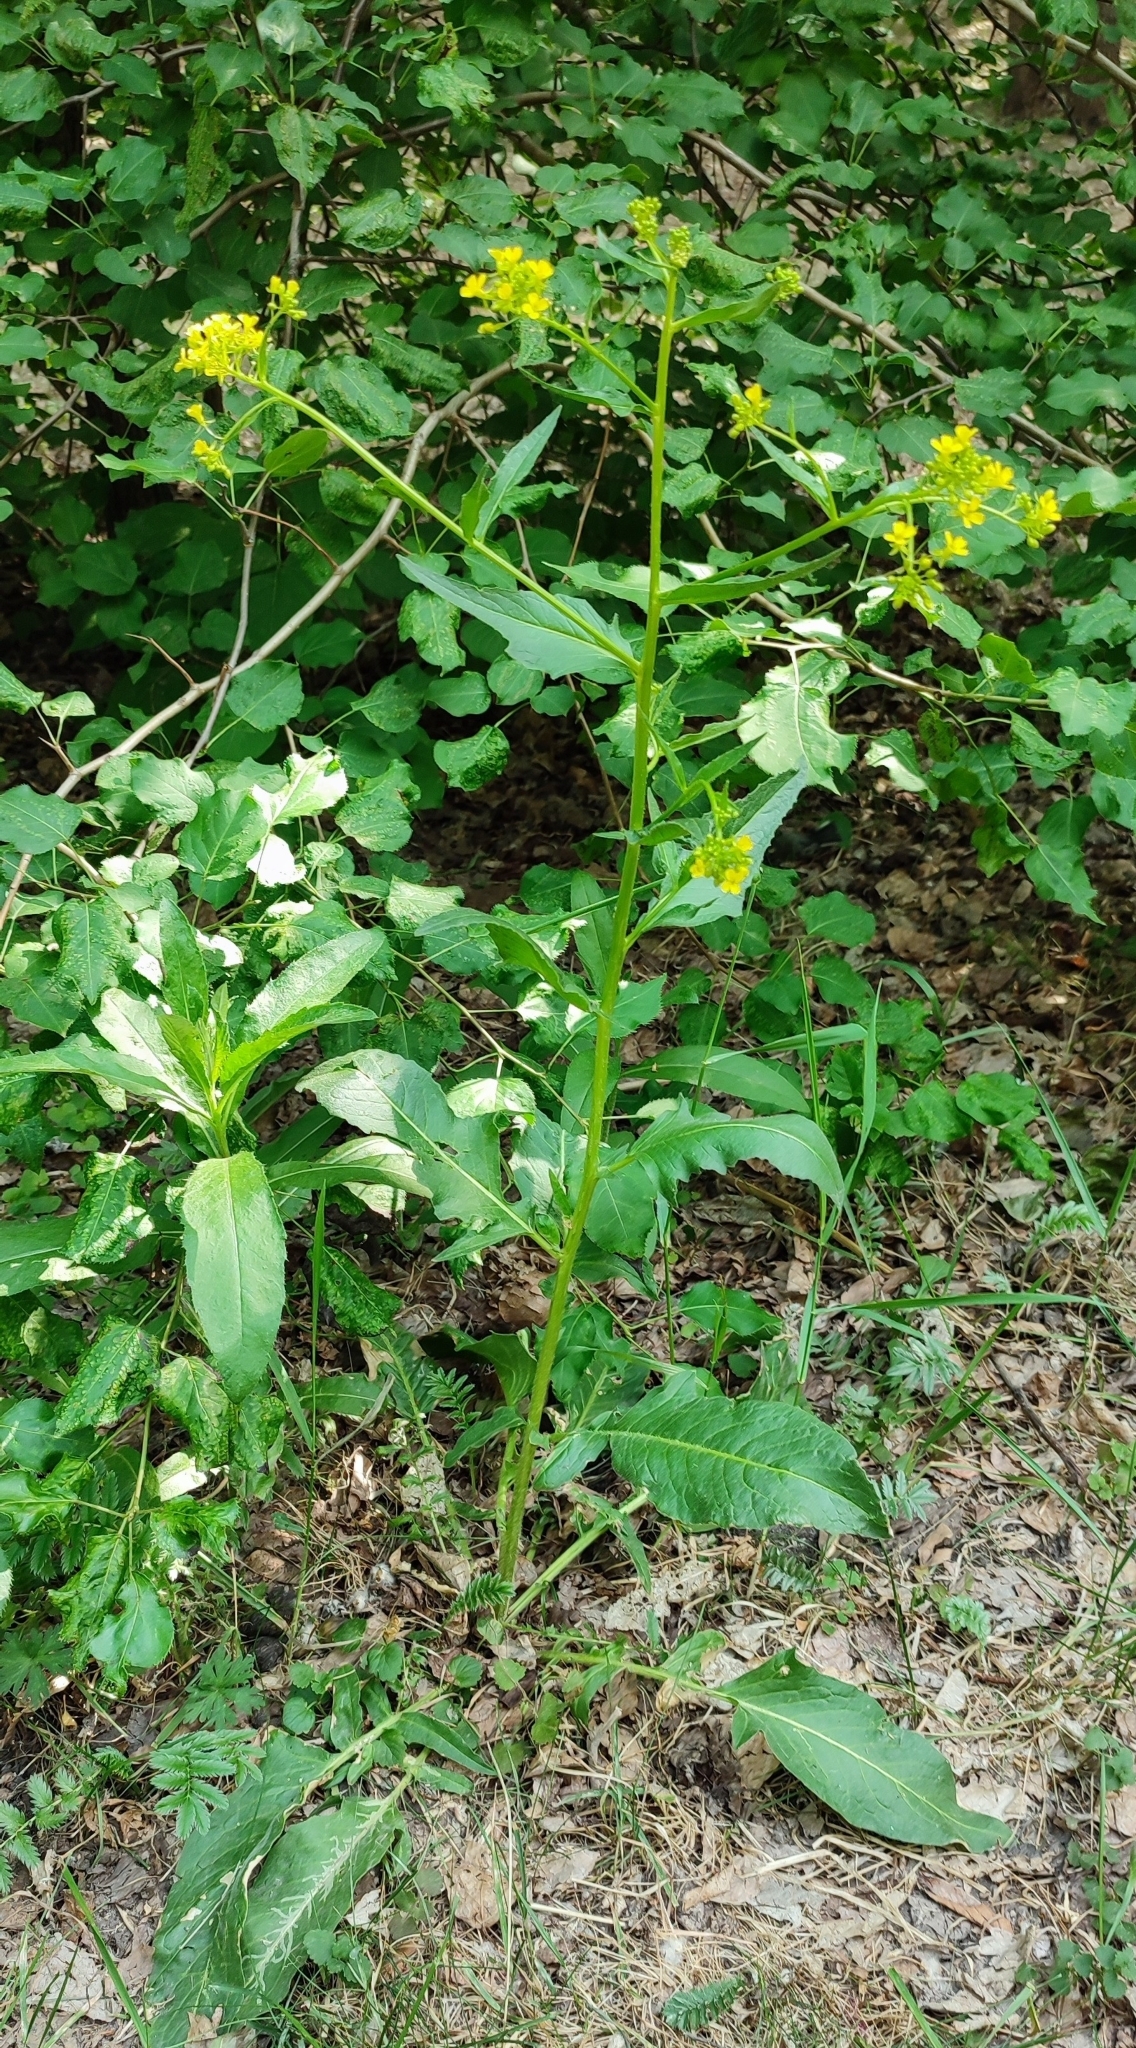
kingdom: Plantae
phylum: Tracheophyta
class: Magnoliopsida
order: Brassicales
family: Brassicaceae
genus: Bunias
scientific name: Bunias orientalis
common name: Warty-cabbage
